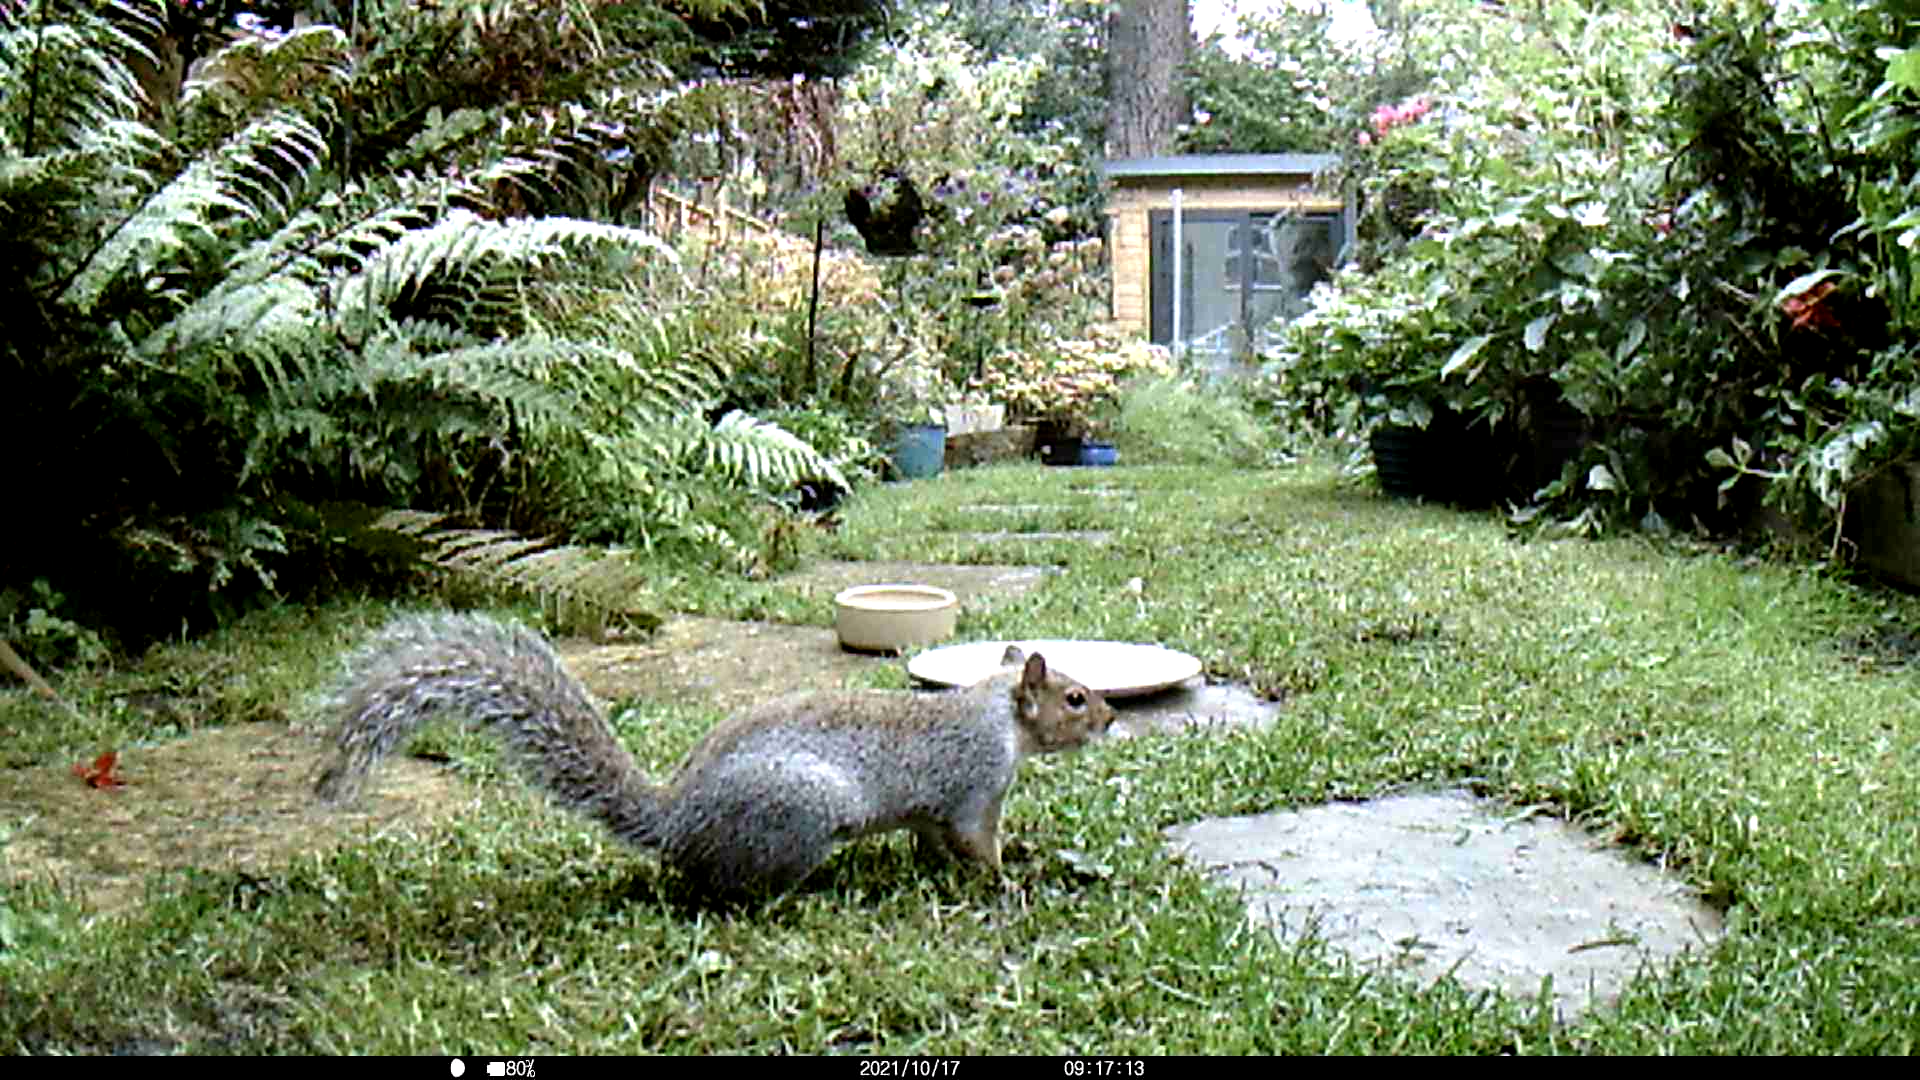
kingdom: Animalia
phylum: Chordata
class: Mammalia
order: Rodentia
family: Sciuridae
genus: Sciurus
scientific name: Sciurus carolinensis
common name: Eastern gray squirrel
